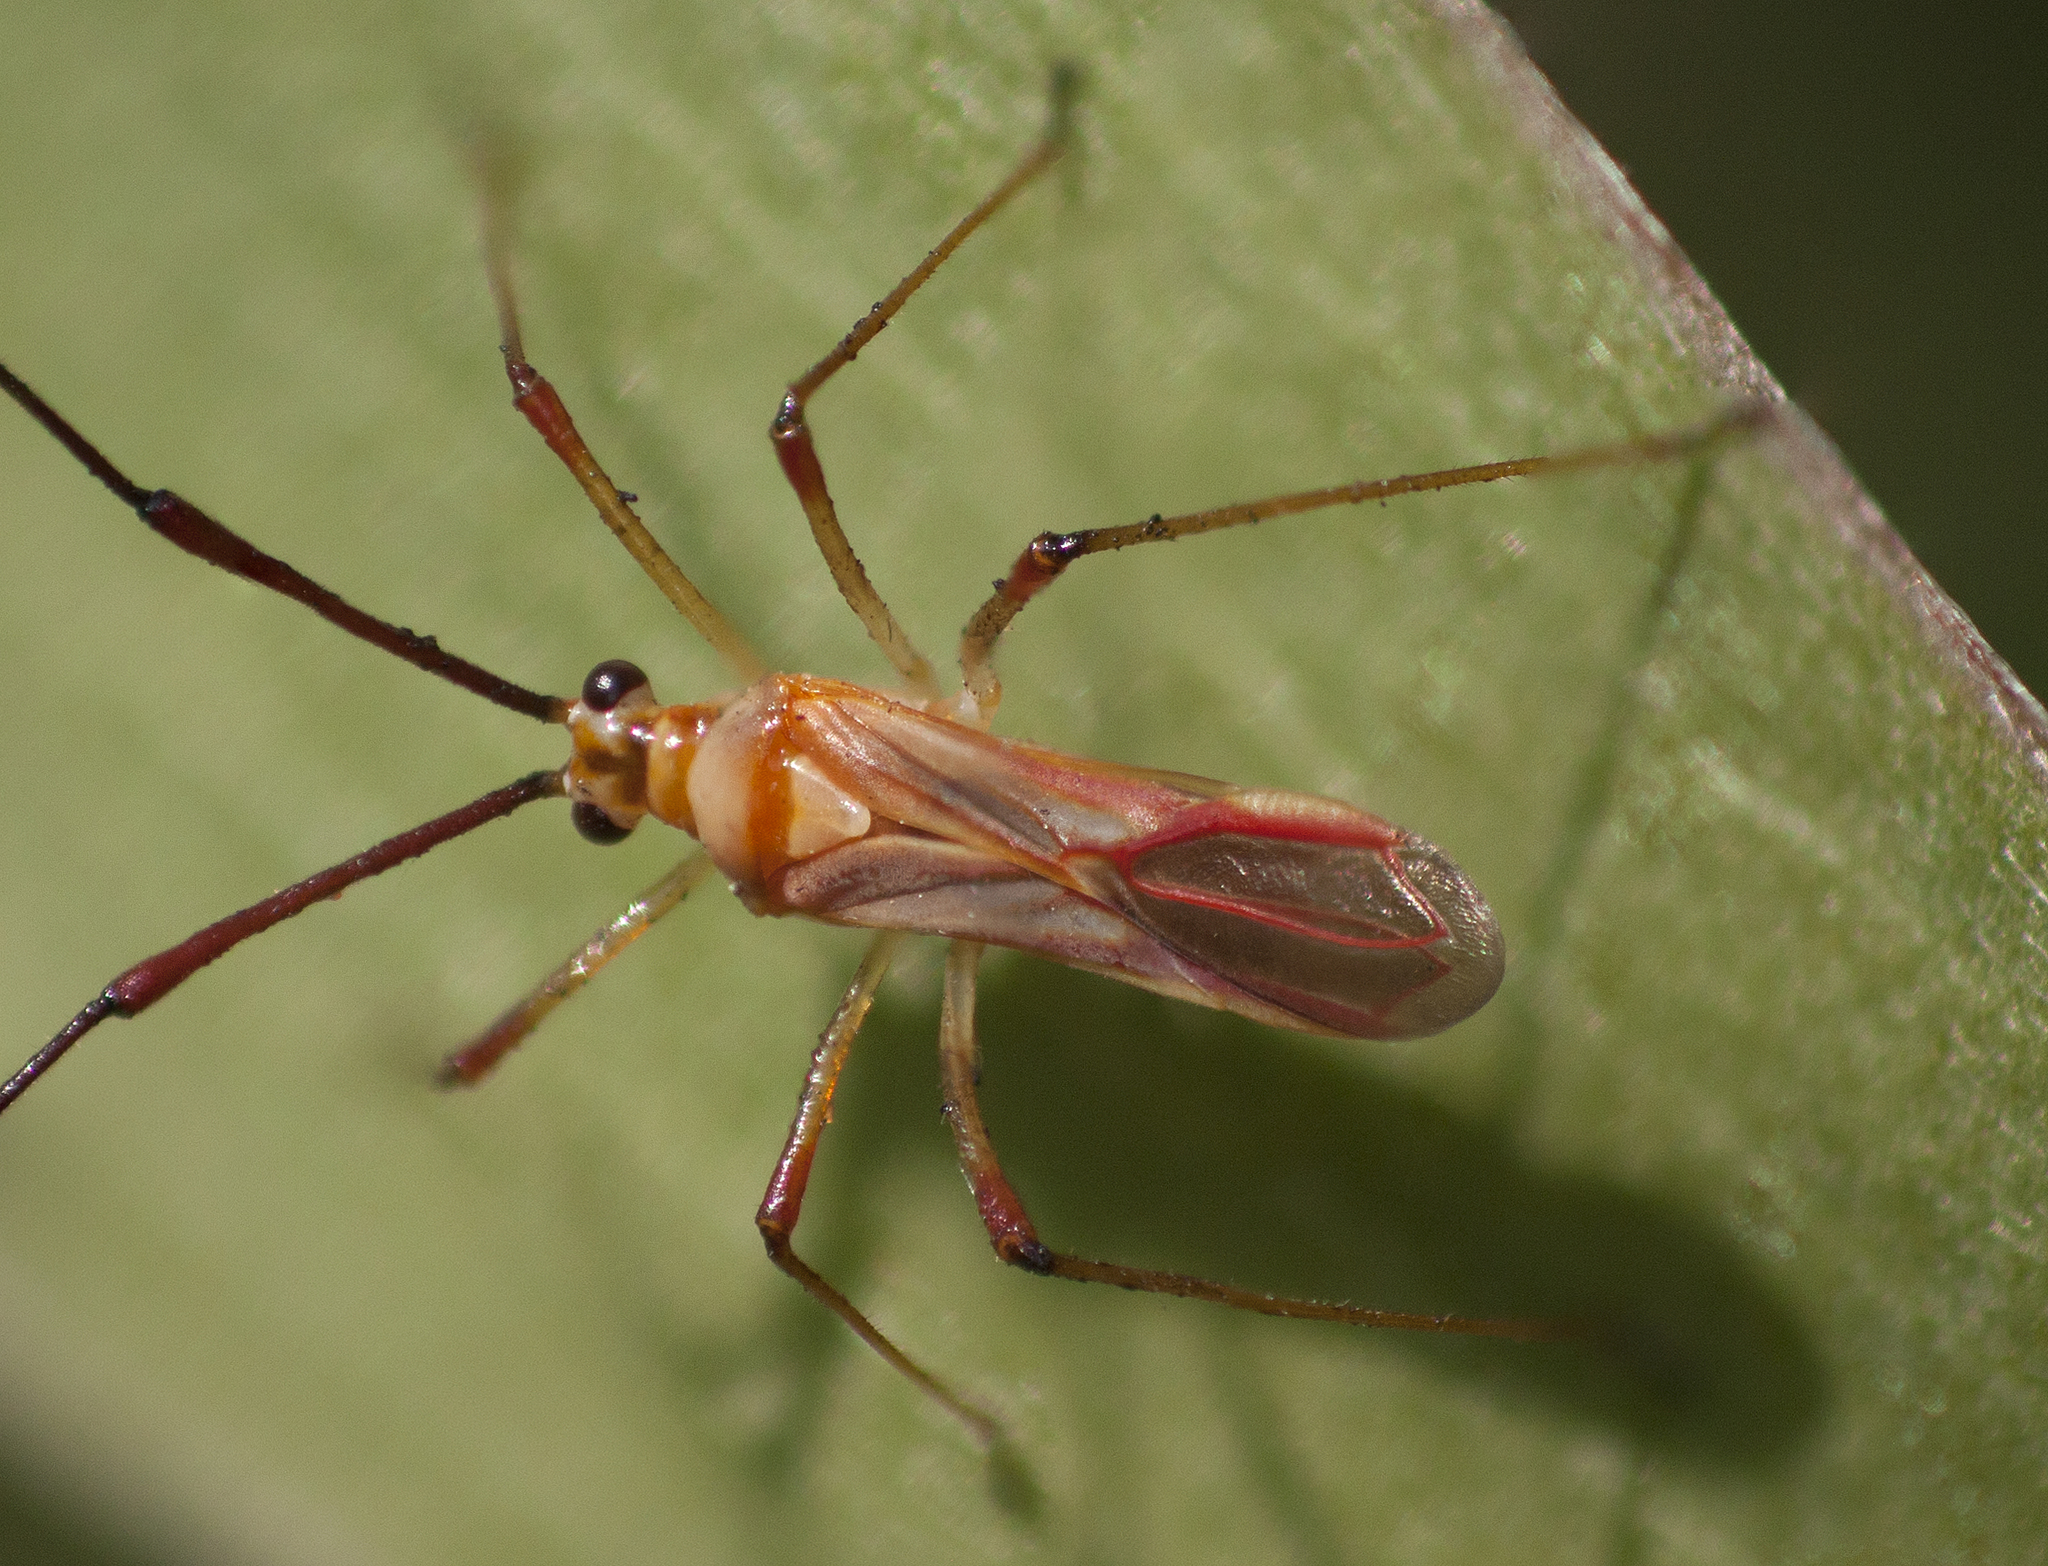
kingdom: Animalia
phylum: Arthropoda
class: Insecta
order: Hemiptera
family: Miridae
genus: Ragwelellus
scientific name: Ragwelellus suspectus
